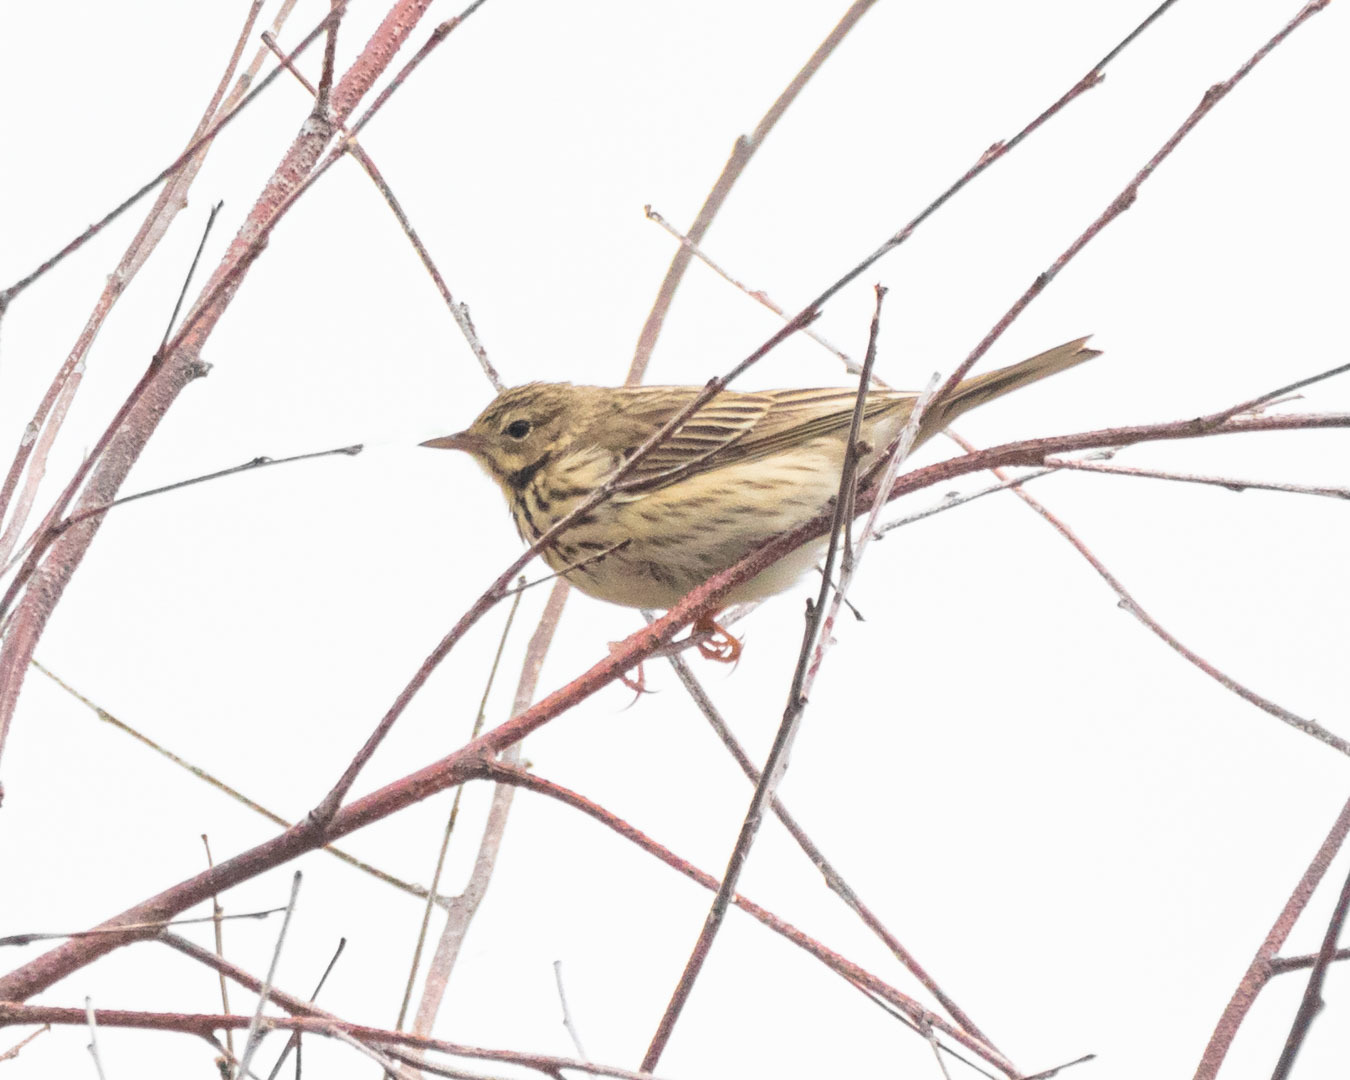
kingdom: Animalia
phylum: Chordata
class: Aves
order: Passeriformes
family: Motacillidae
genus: Anthus
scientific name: Anthus trivialis
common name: Tree pipit
